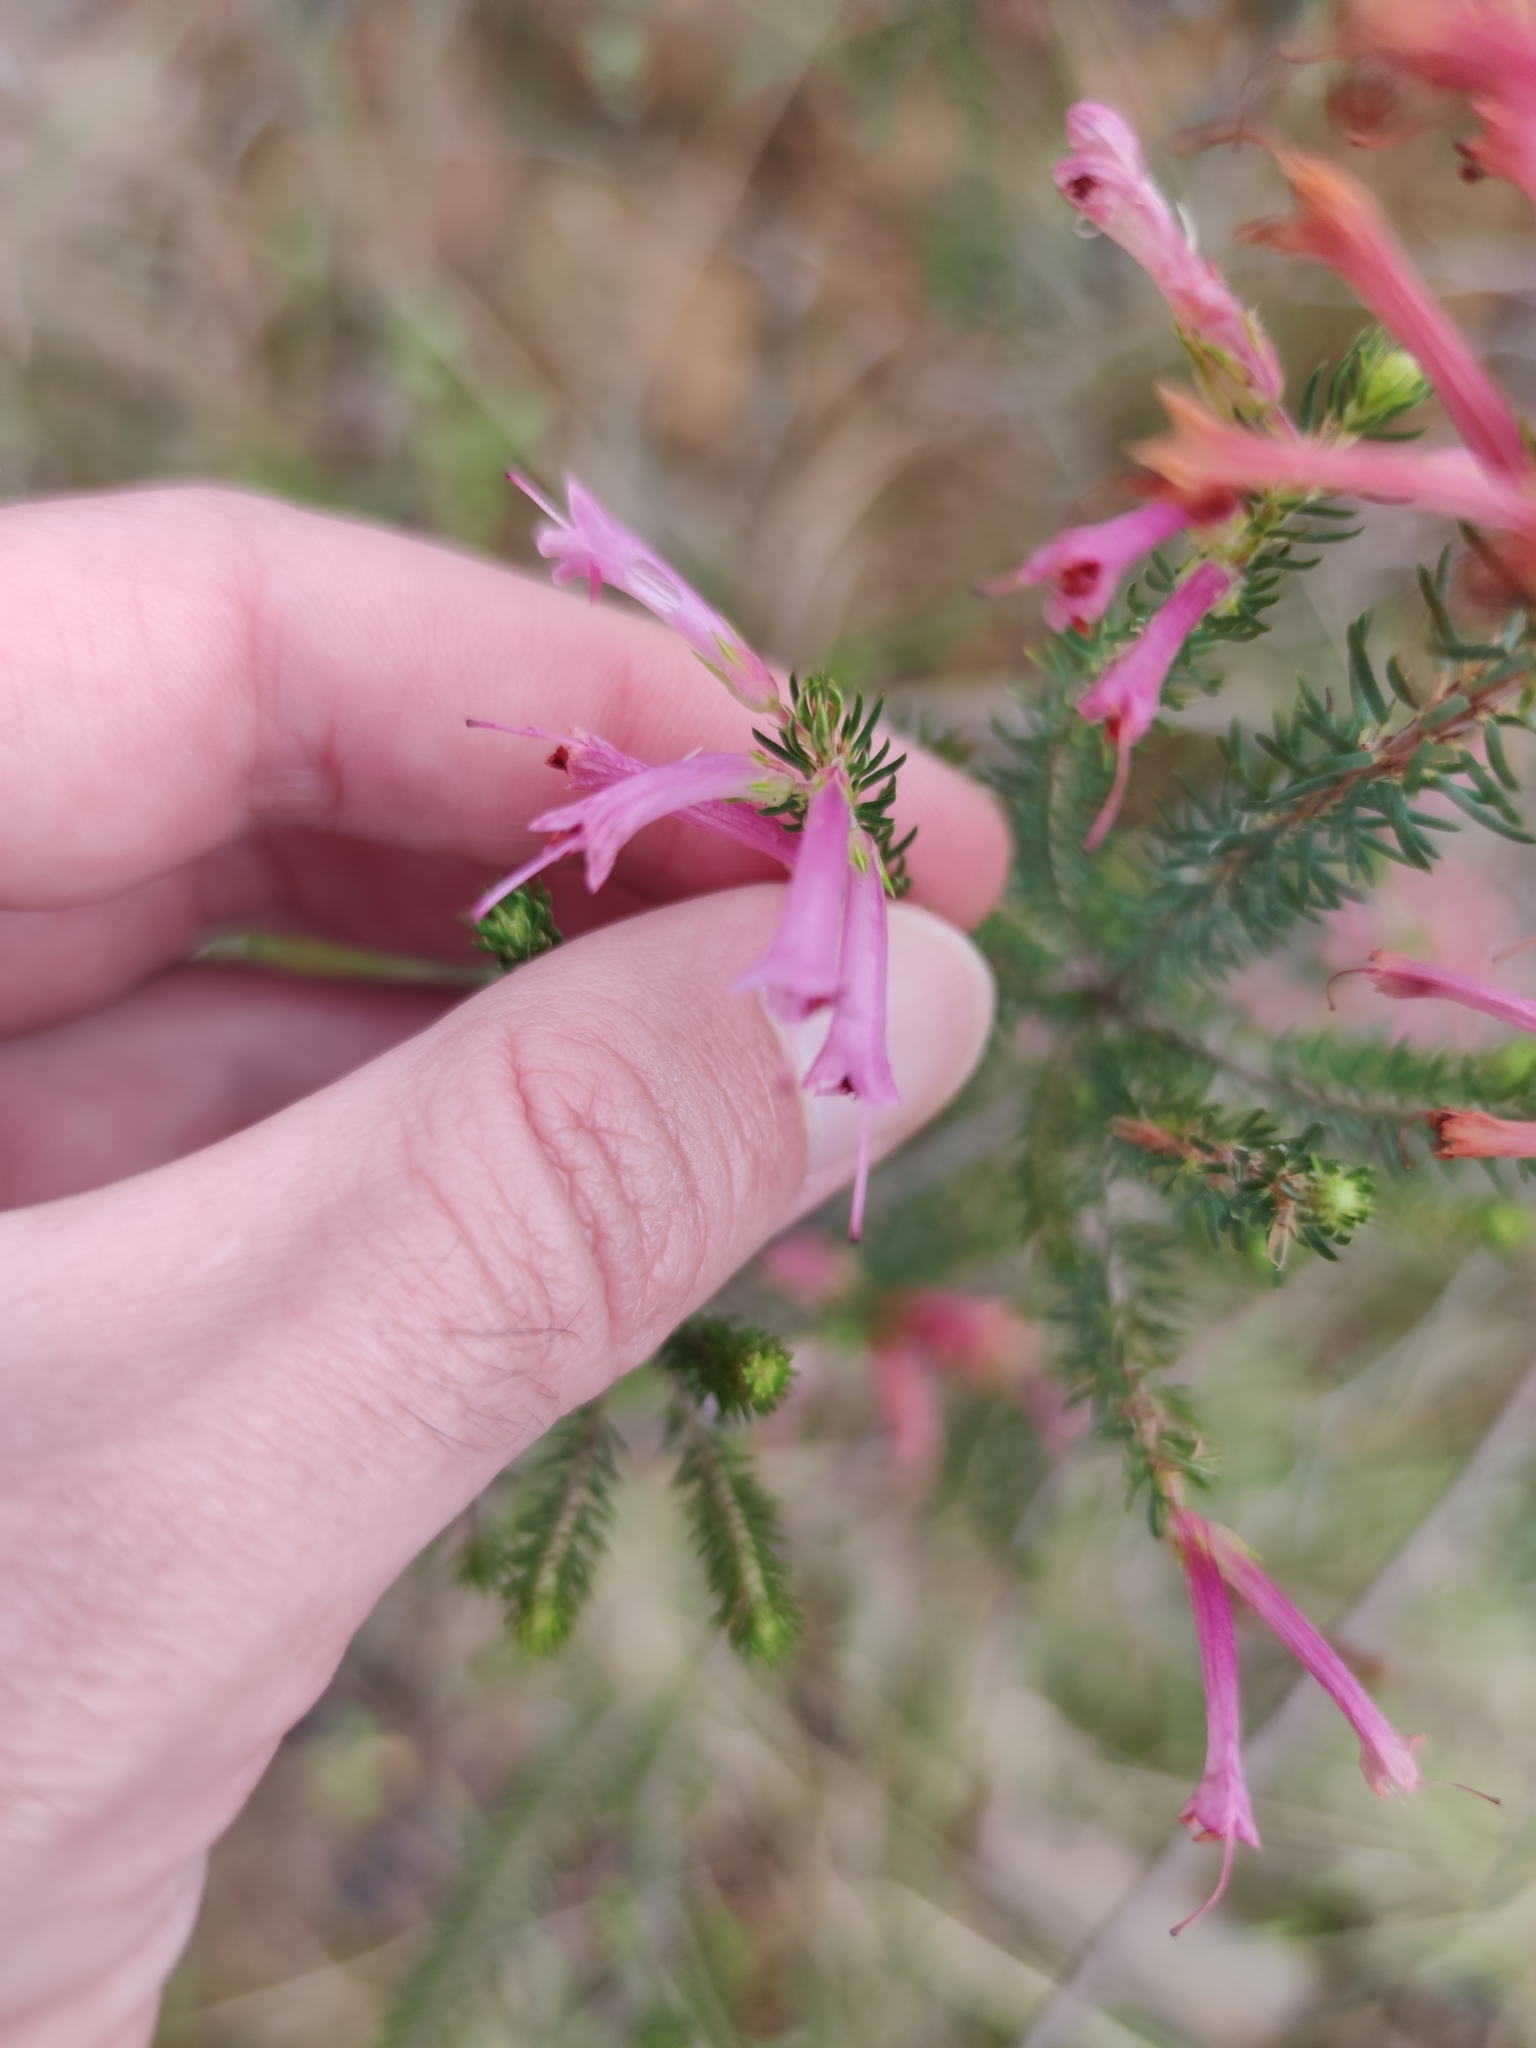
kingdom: Plantae
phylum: Tracheophyta
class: Magnoliopsida
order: Ericales
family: Ericaceae
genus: Erica
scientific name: Erica abietina
